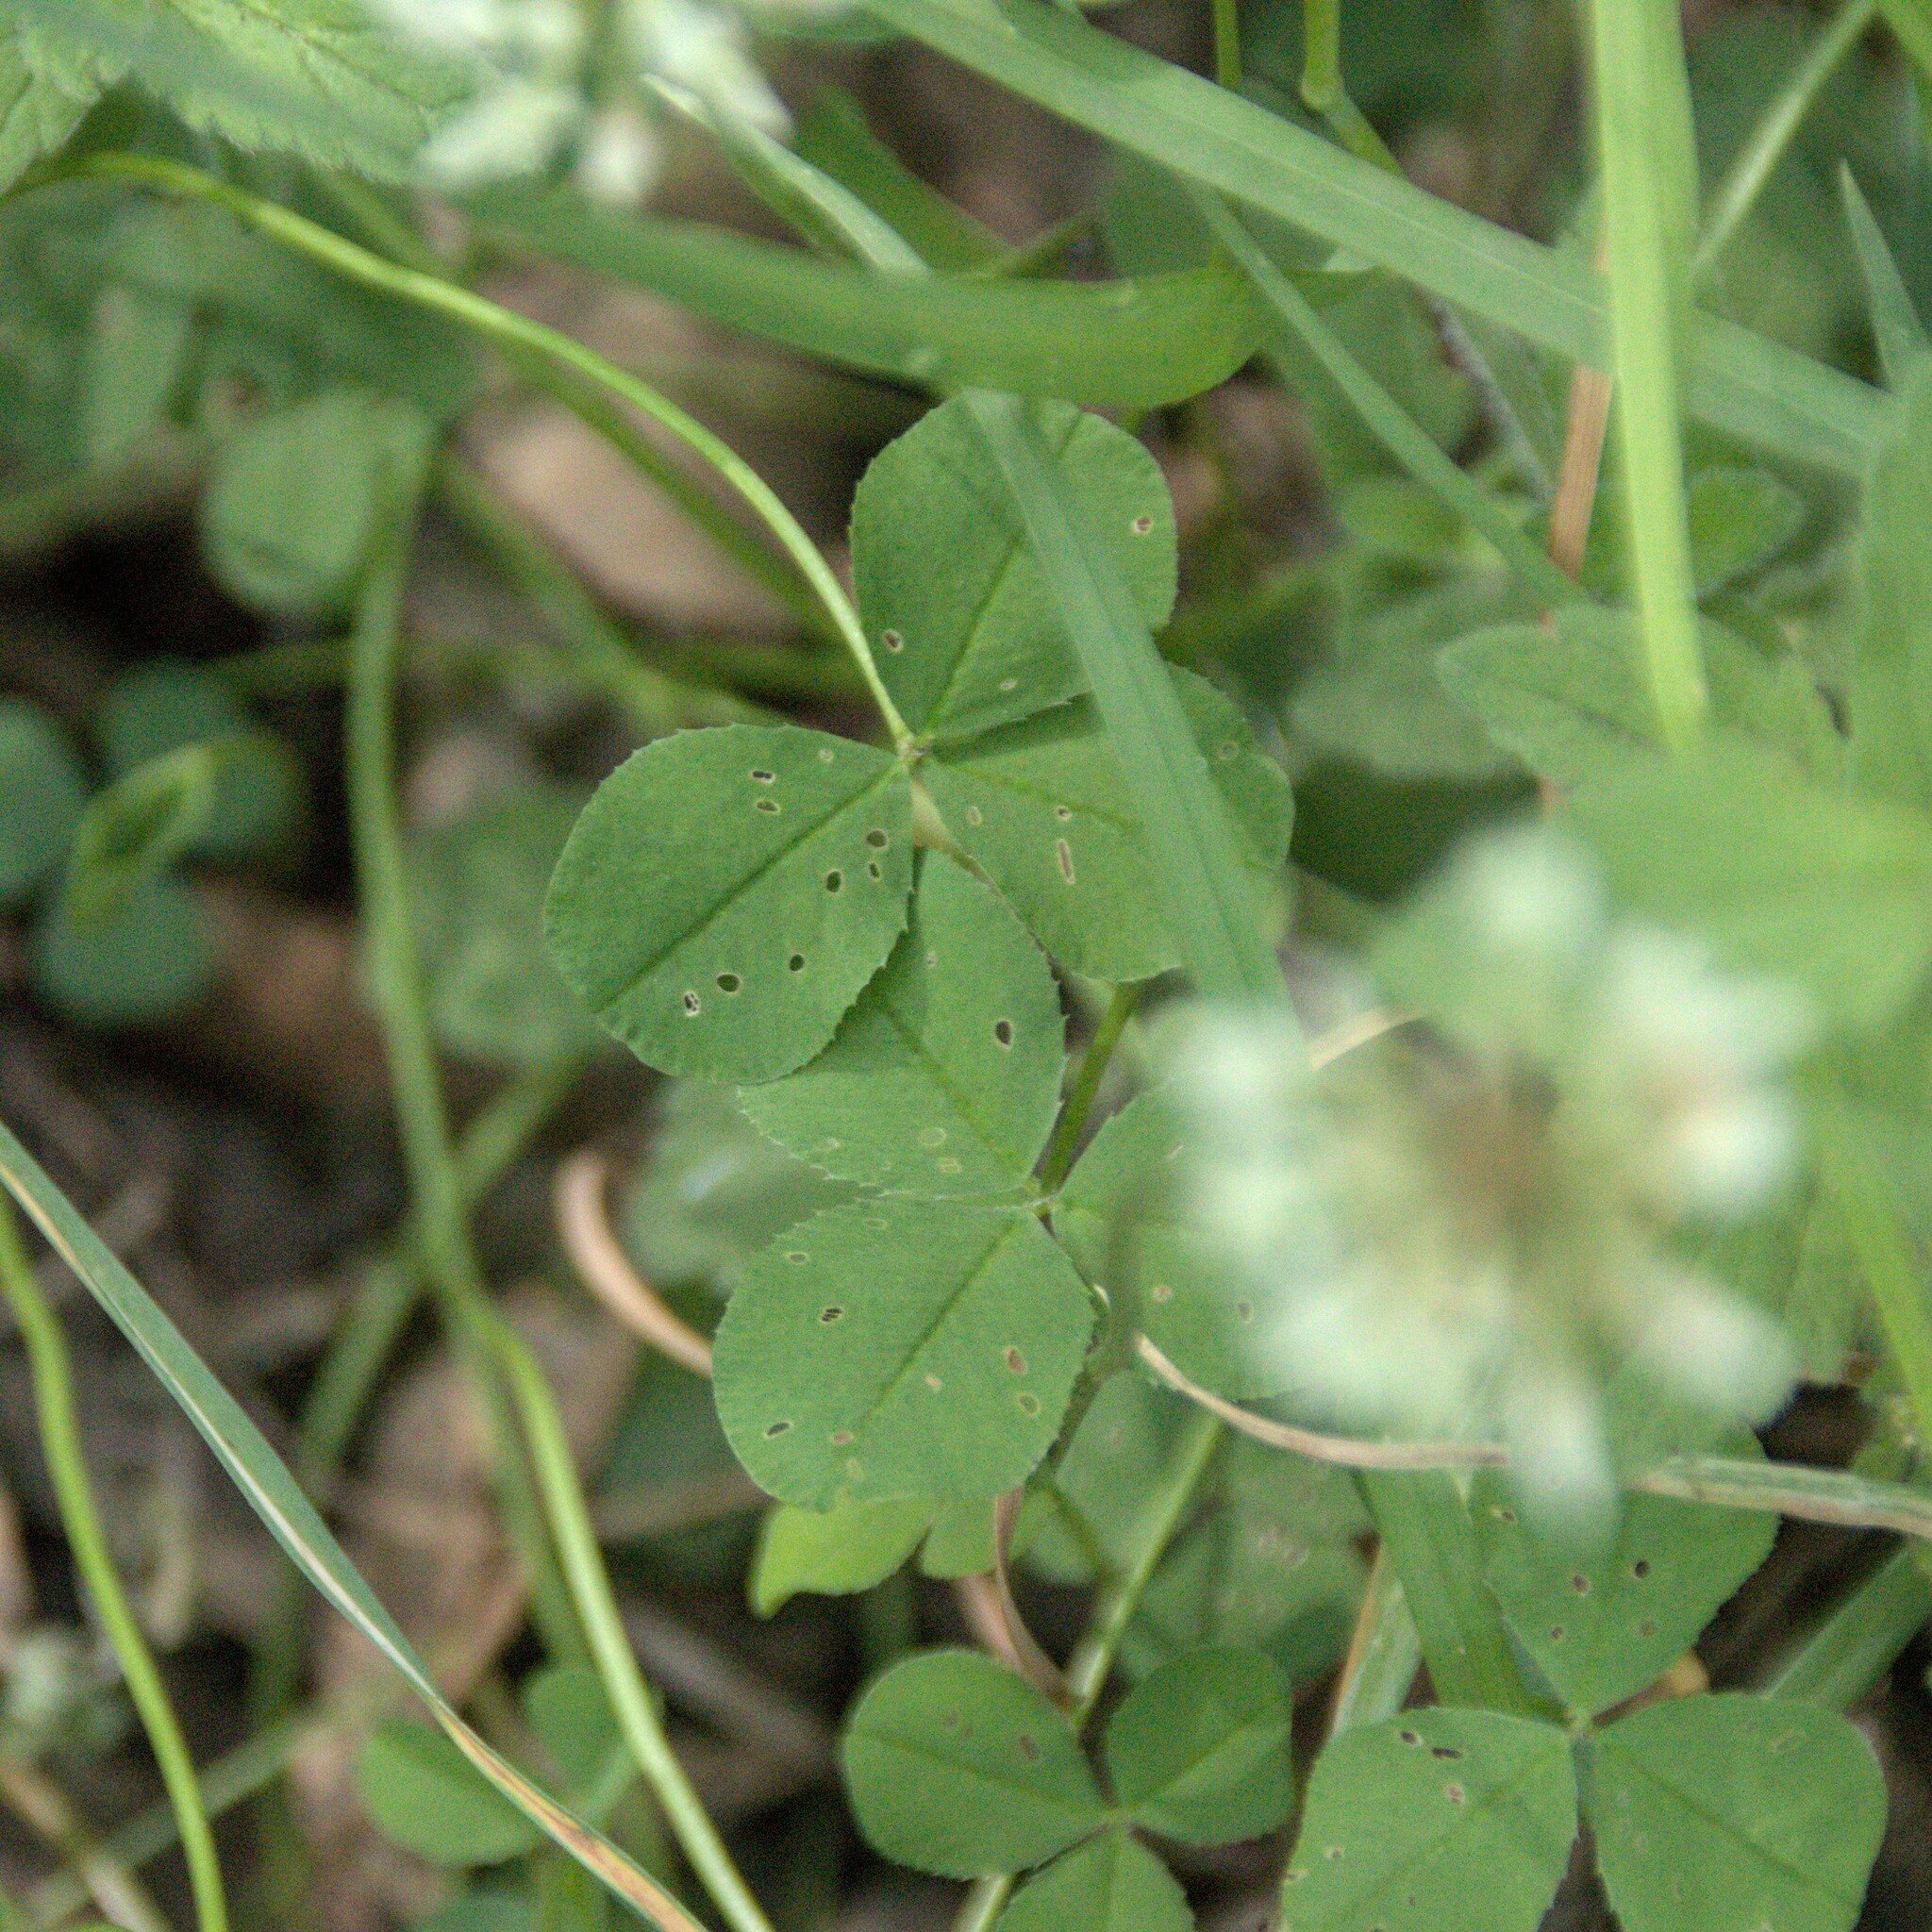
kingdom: Plantae
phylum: Tracheophyta
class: Magnoliopsida
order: Fabales
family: Fabaceae
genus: Trifolium
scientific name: Trifolium repens
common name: White clover
